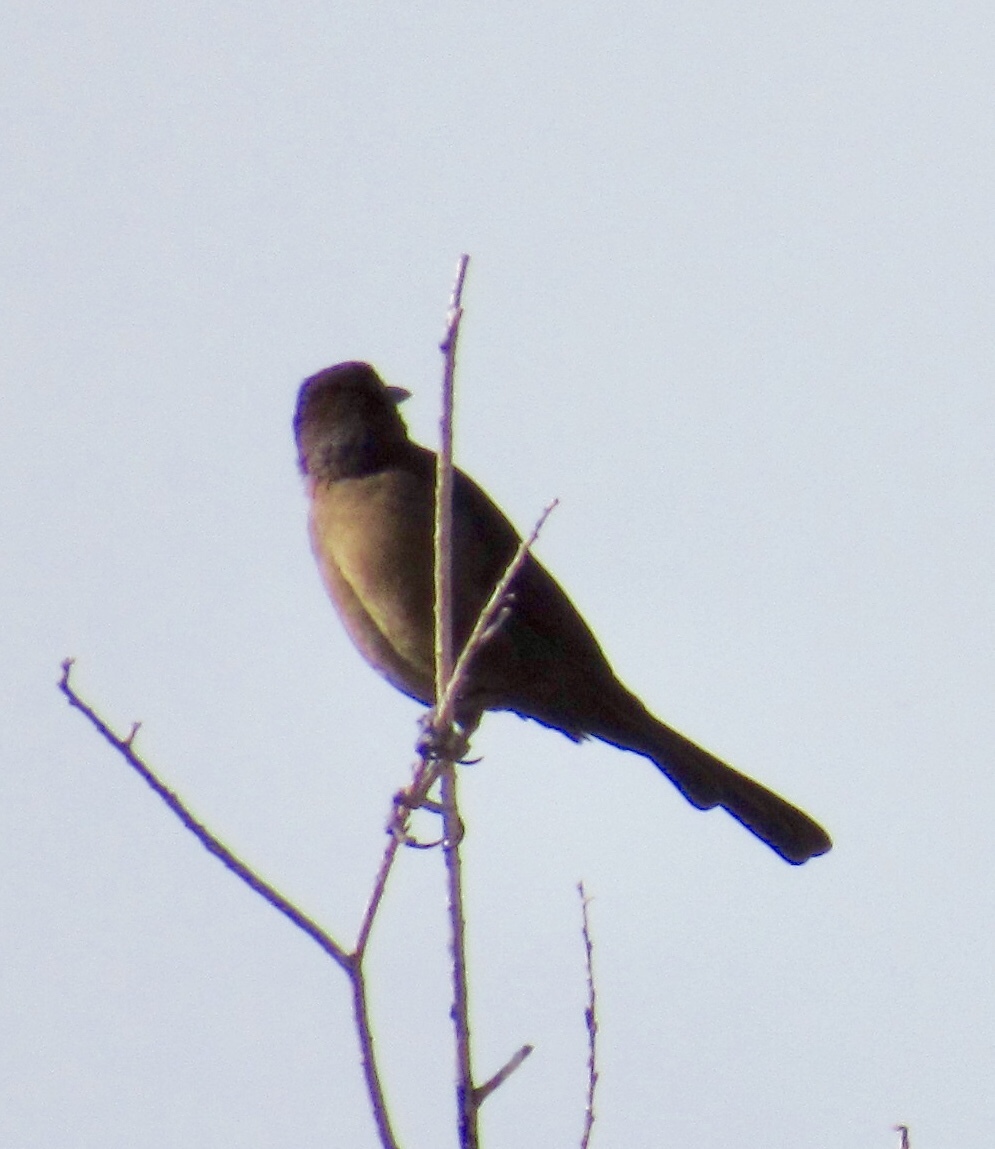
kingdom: Animalia
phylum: Chordata
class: Aves
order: Passeriformes
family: Icteridae
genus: Quiscalus
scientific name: Quiscalus mexicanus
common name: Great-tailed grackle
